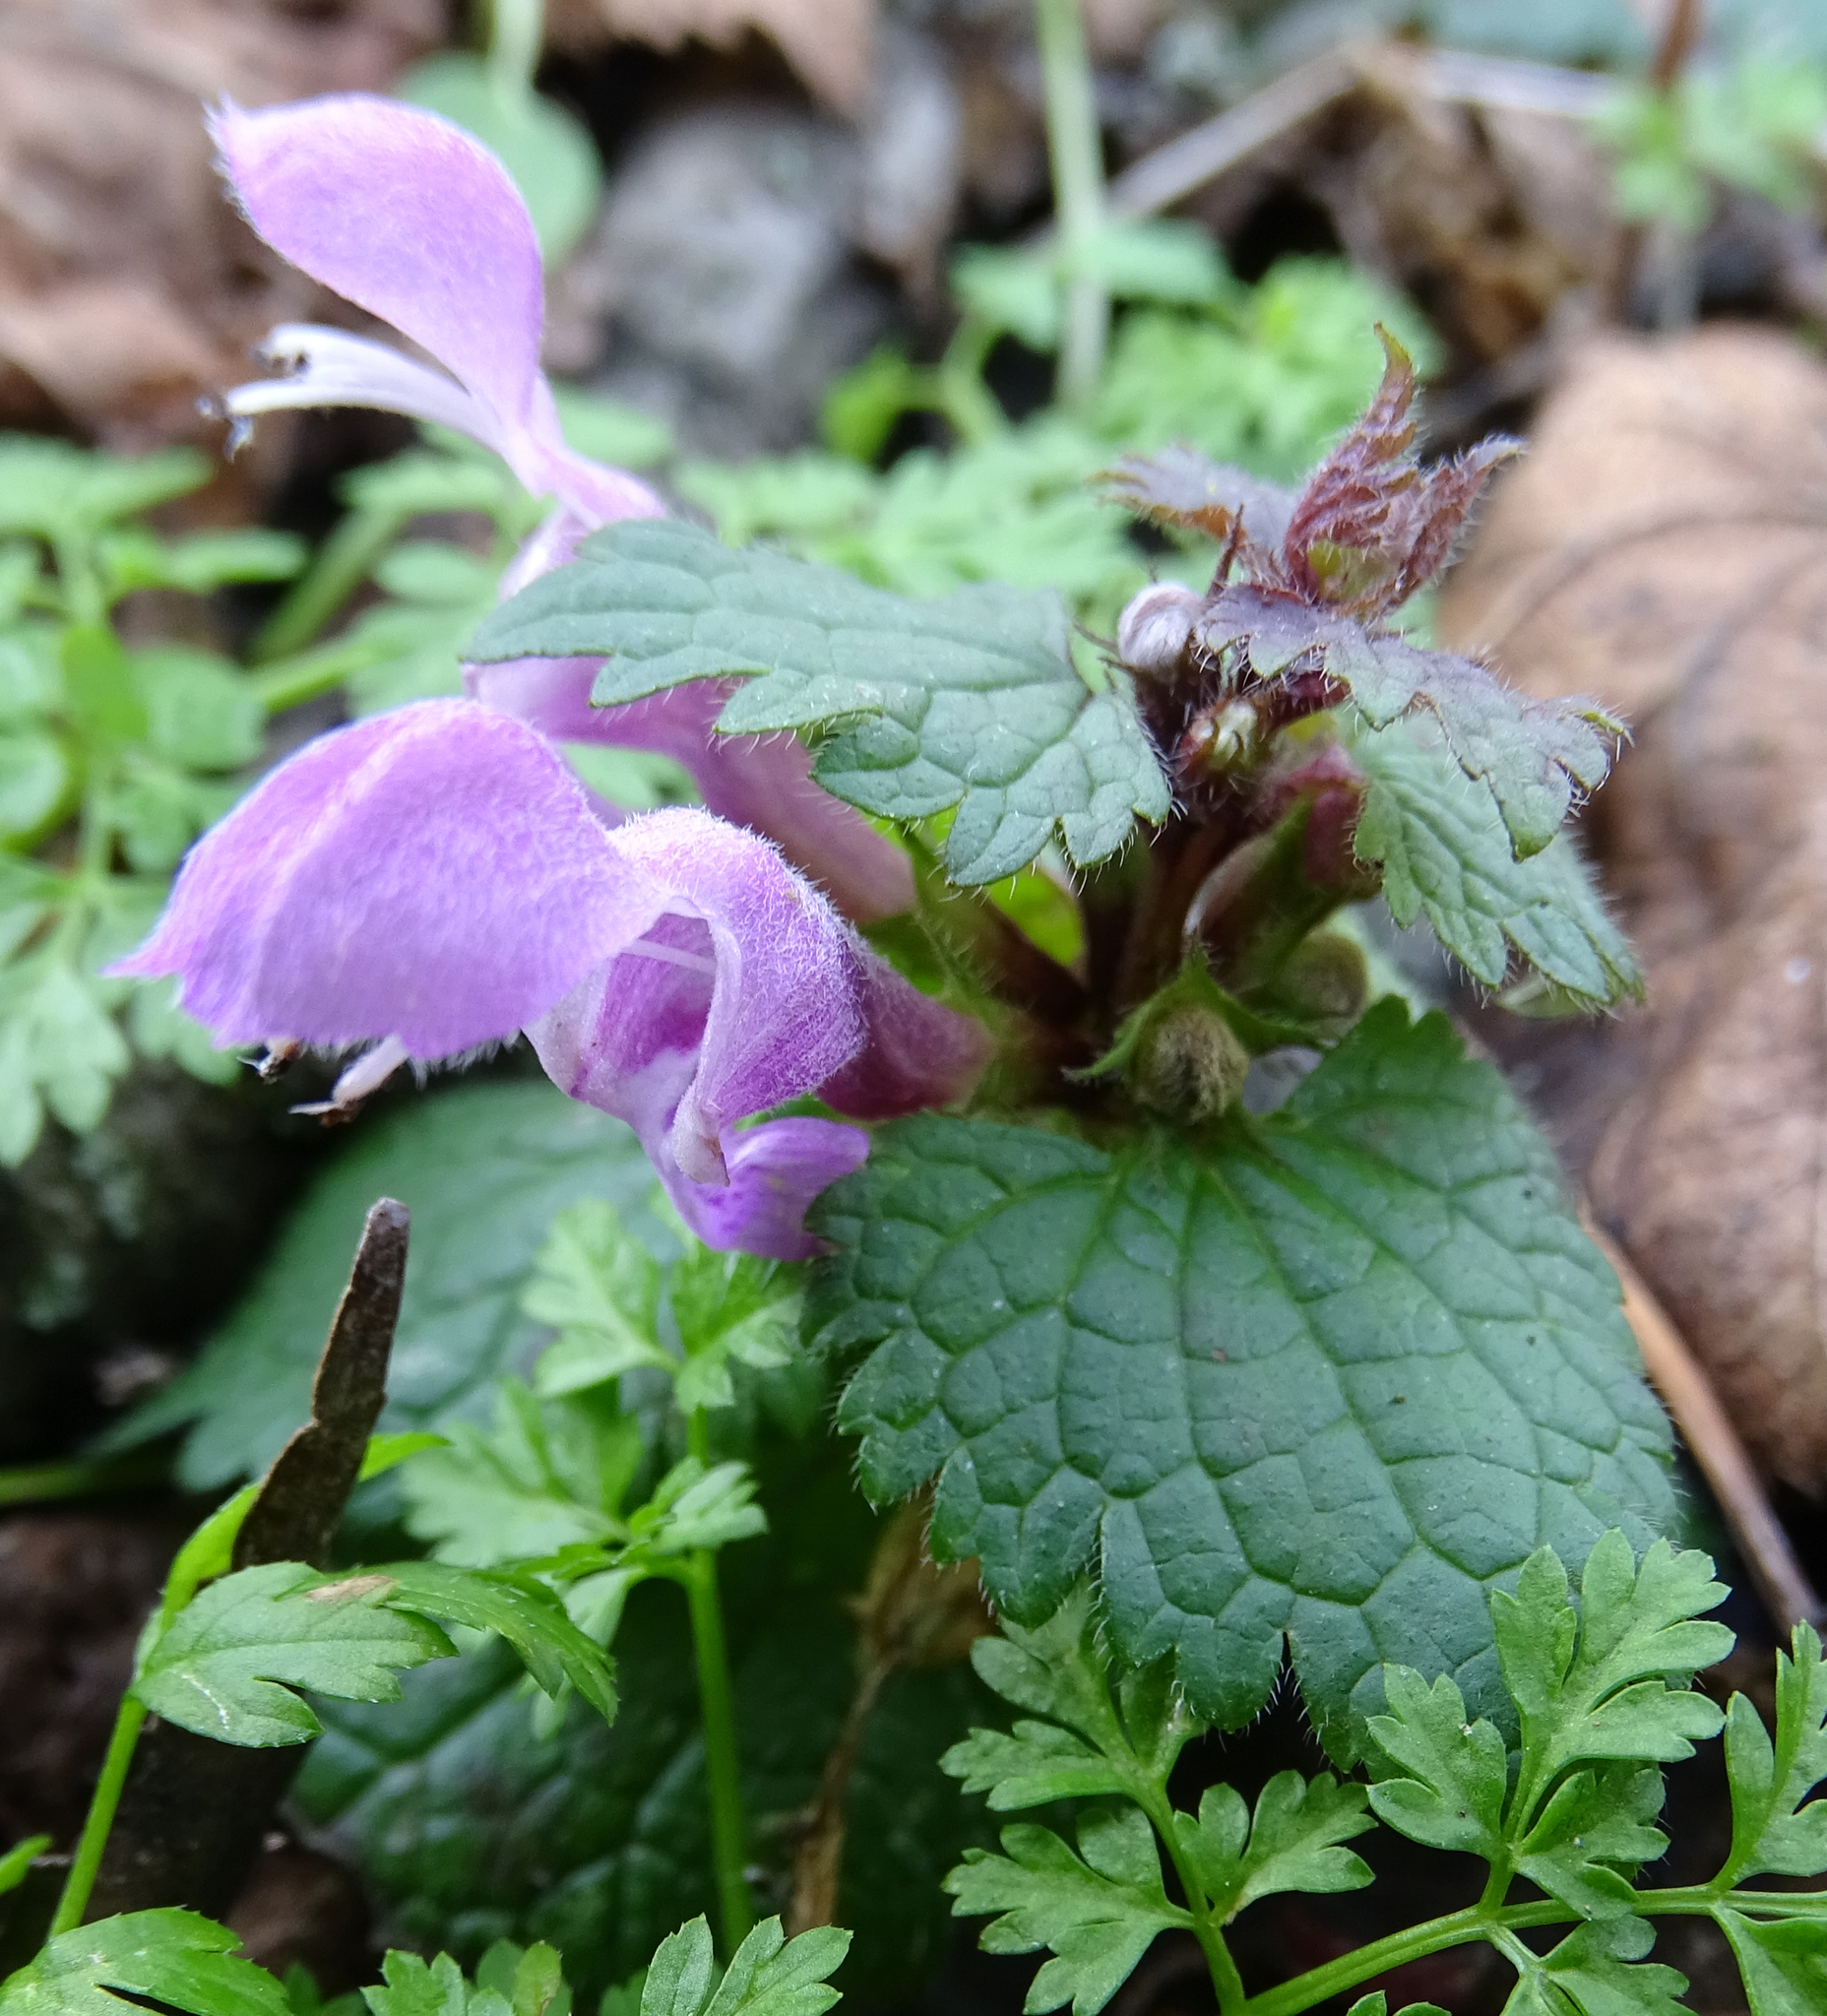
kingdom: Plantae
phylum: Tracheophyta
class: Magnoliopsida
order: Lamiales
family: Lamiaceae
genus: Lamium
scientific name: Lamium maculatum
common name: Spotted dead-nettle
